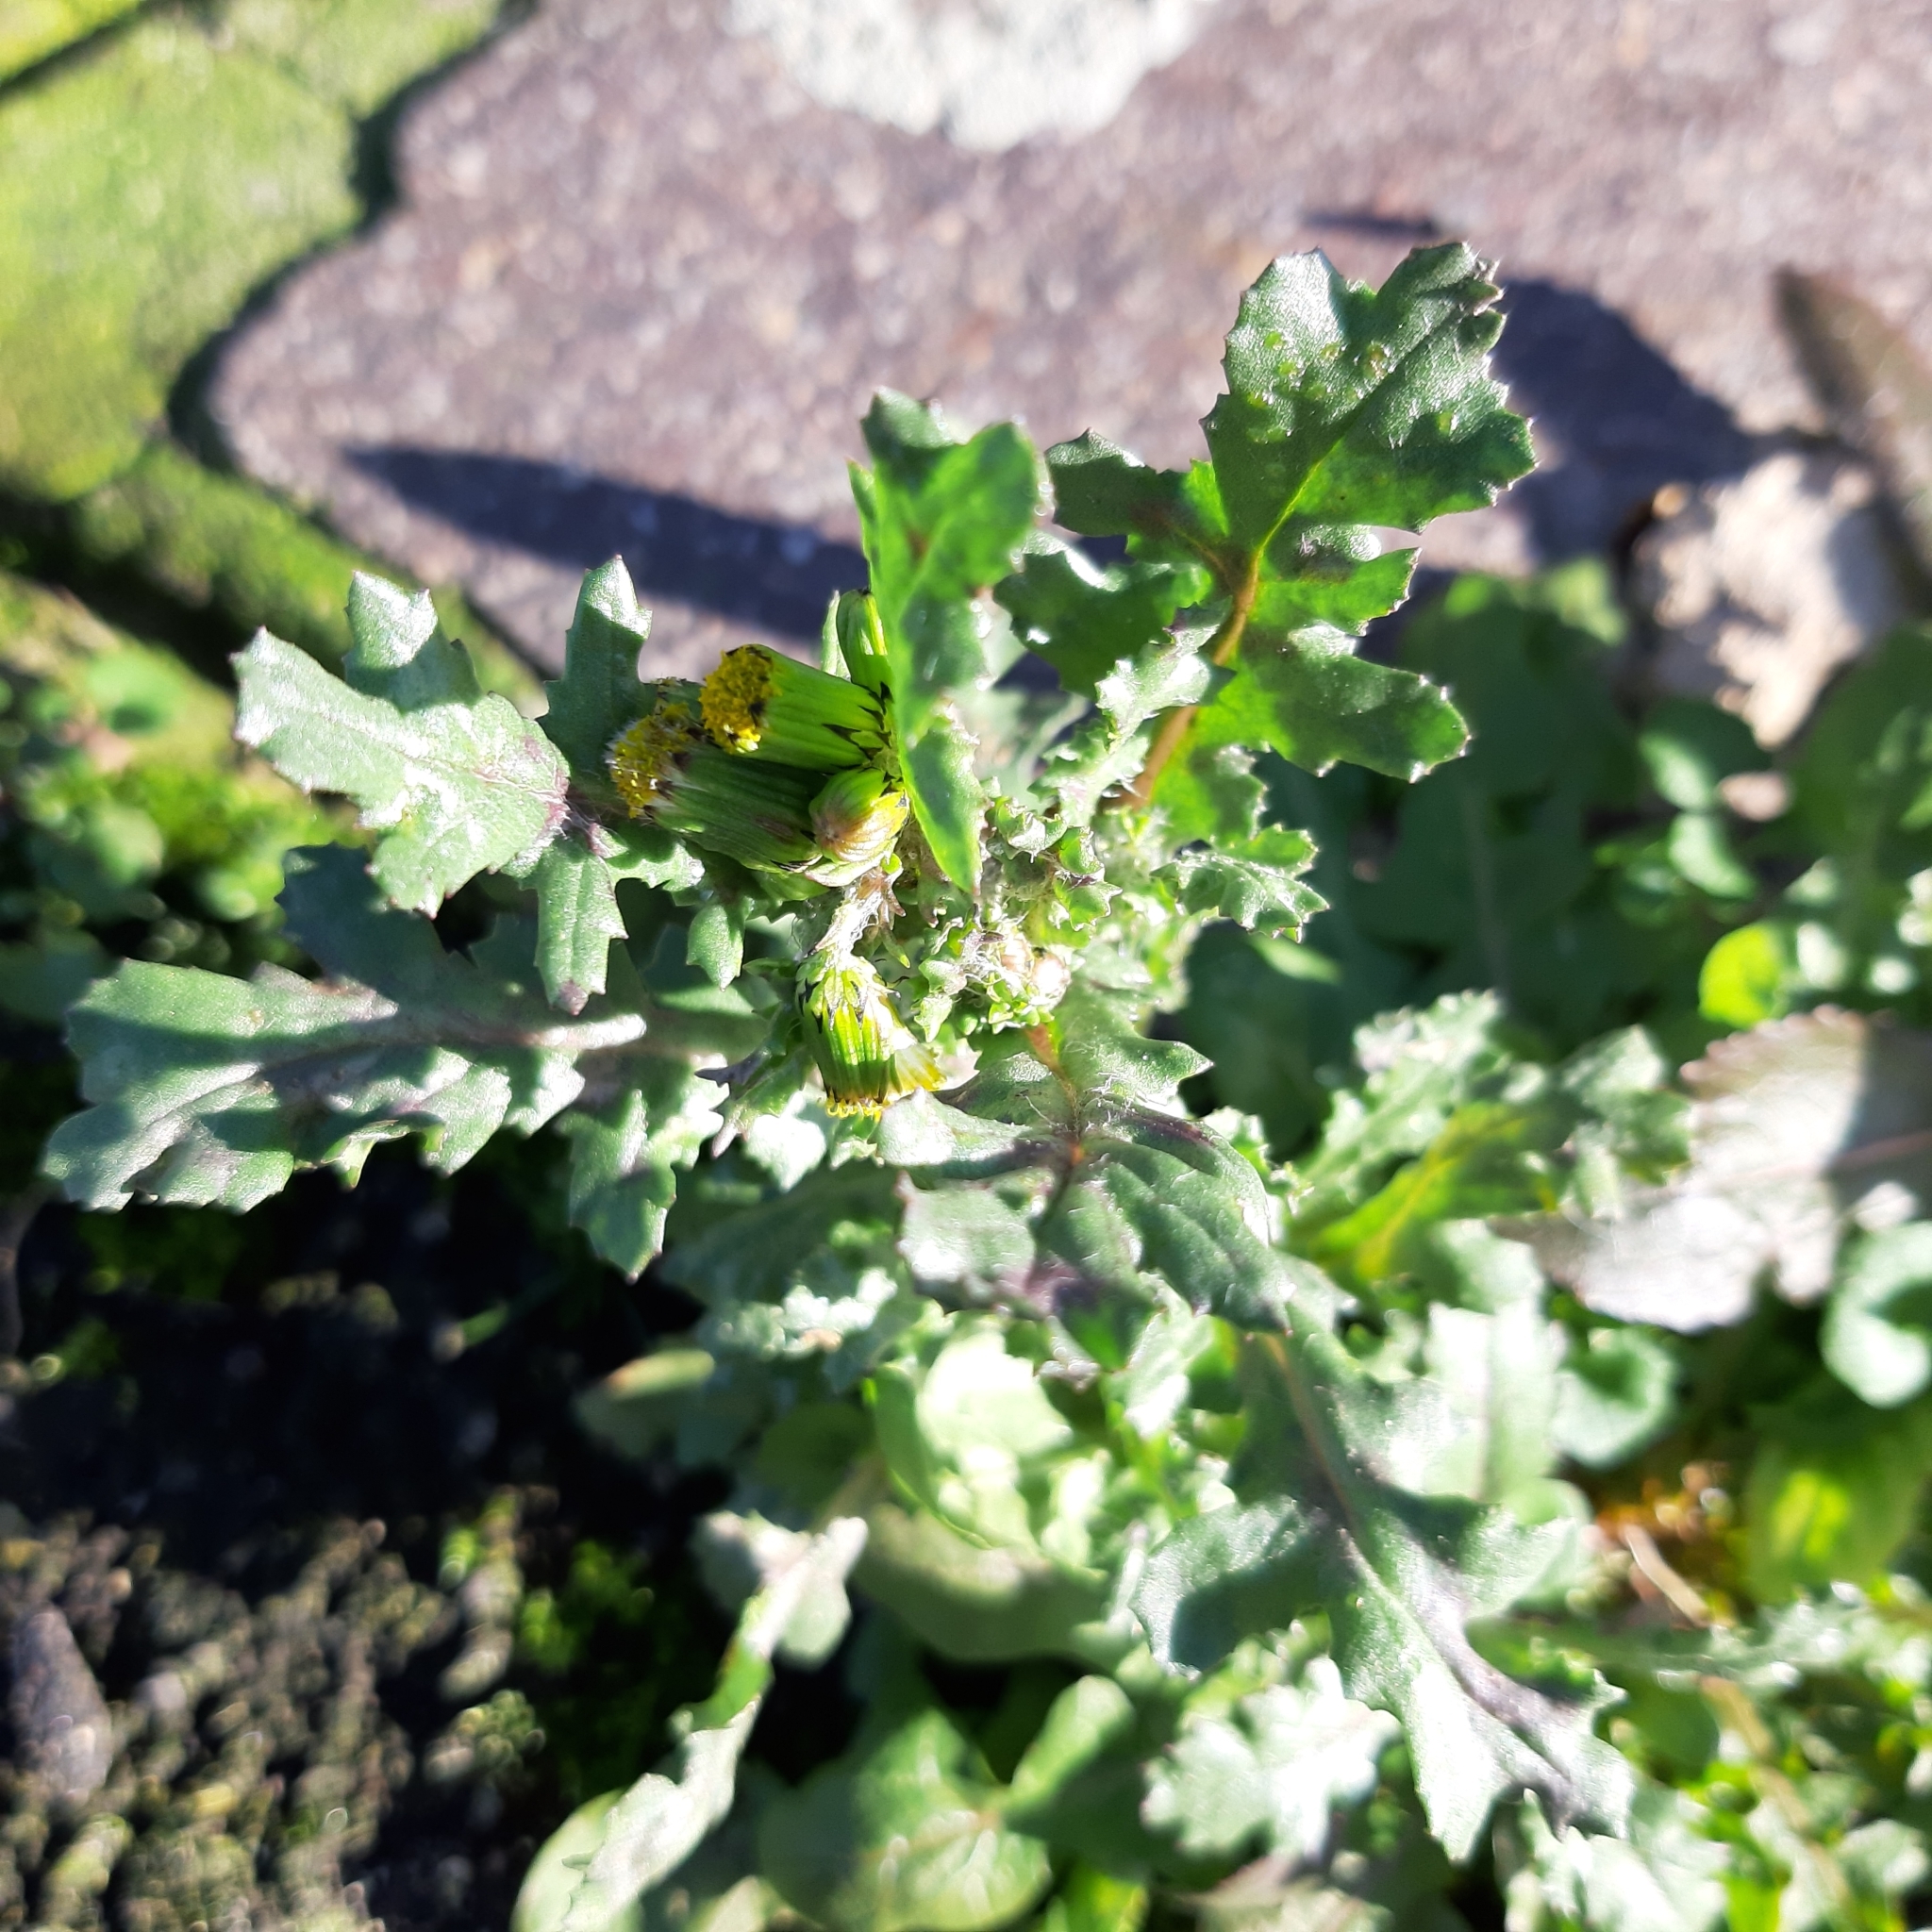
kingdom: Plantae
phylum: Tracheophyta
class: Magnoliopsida
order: Asterales
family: Asteraceae
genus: Senecio
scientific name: Senecio vulgaris
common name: Old-man-in-the-spring
